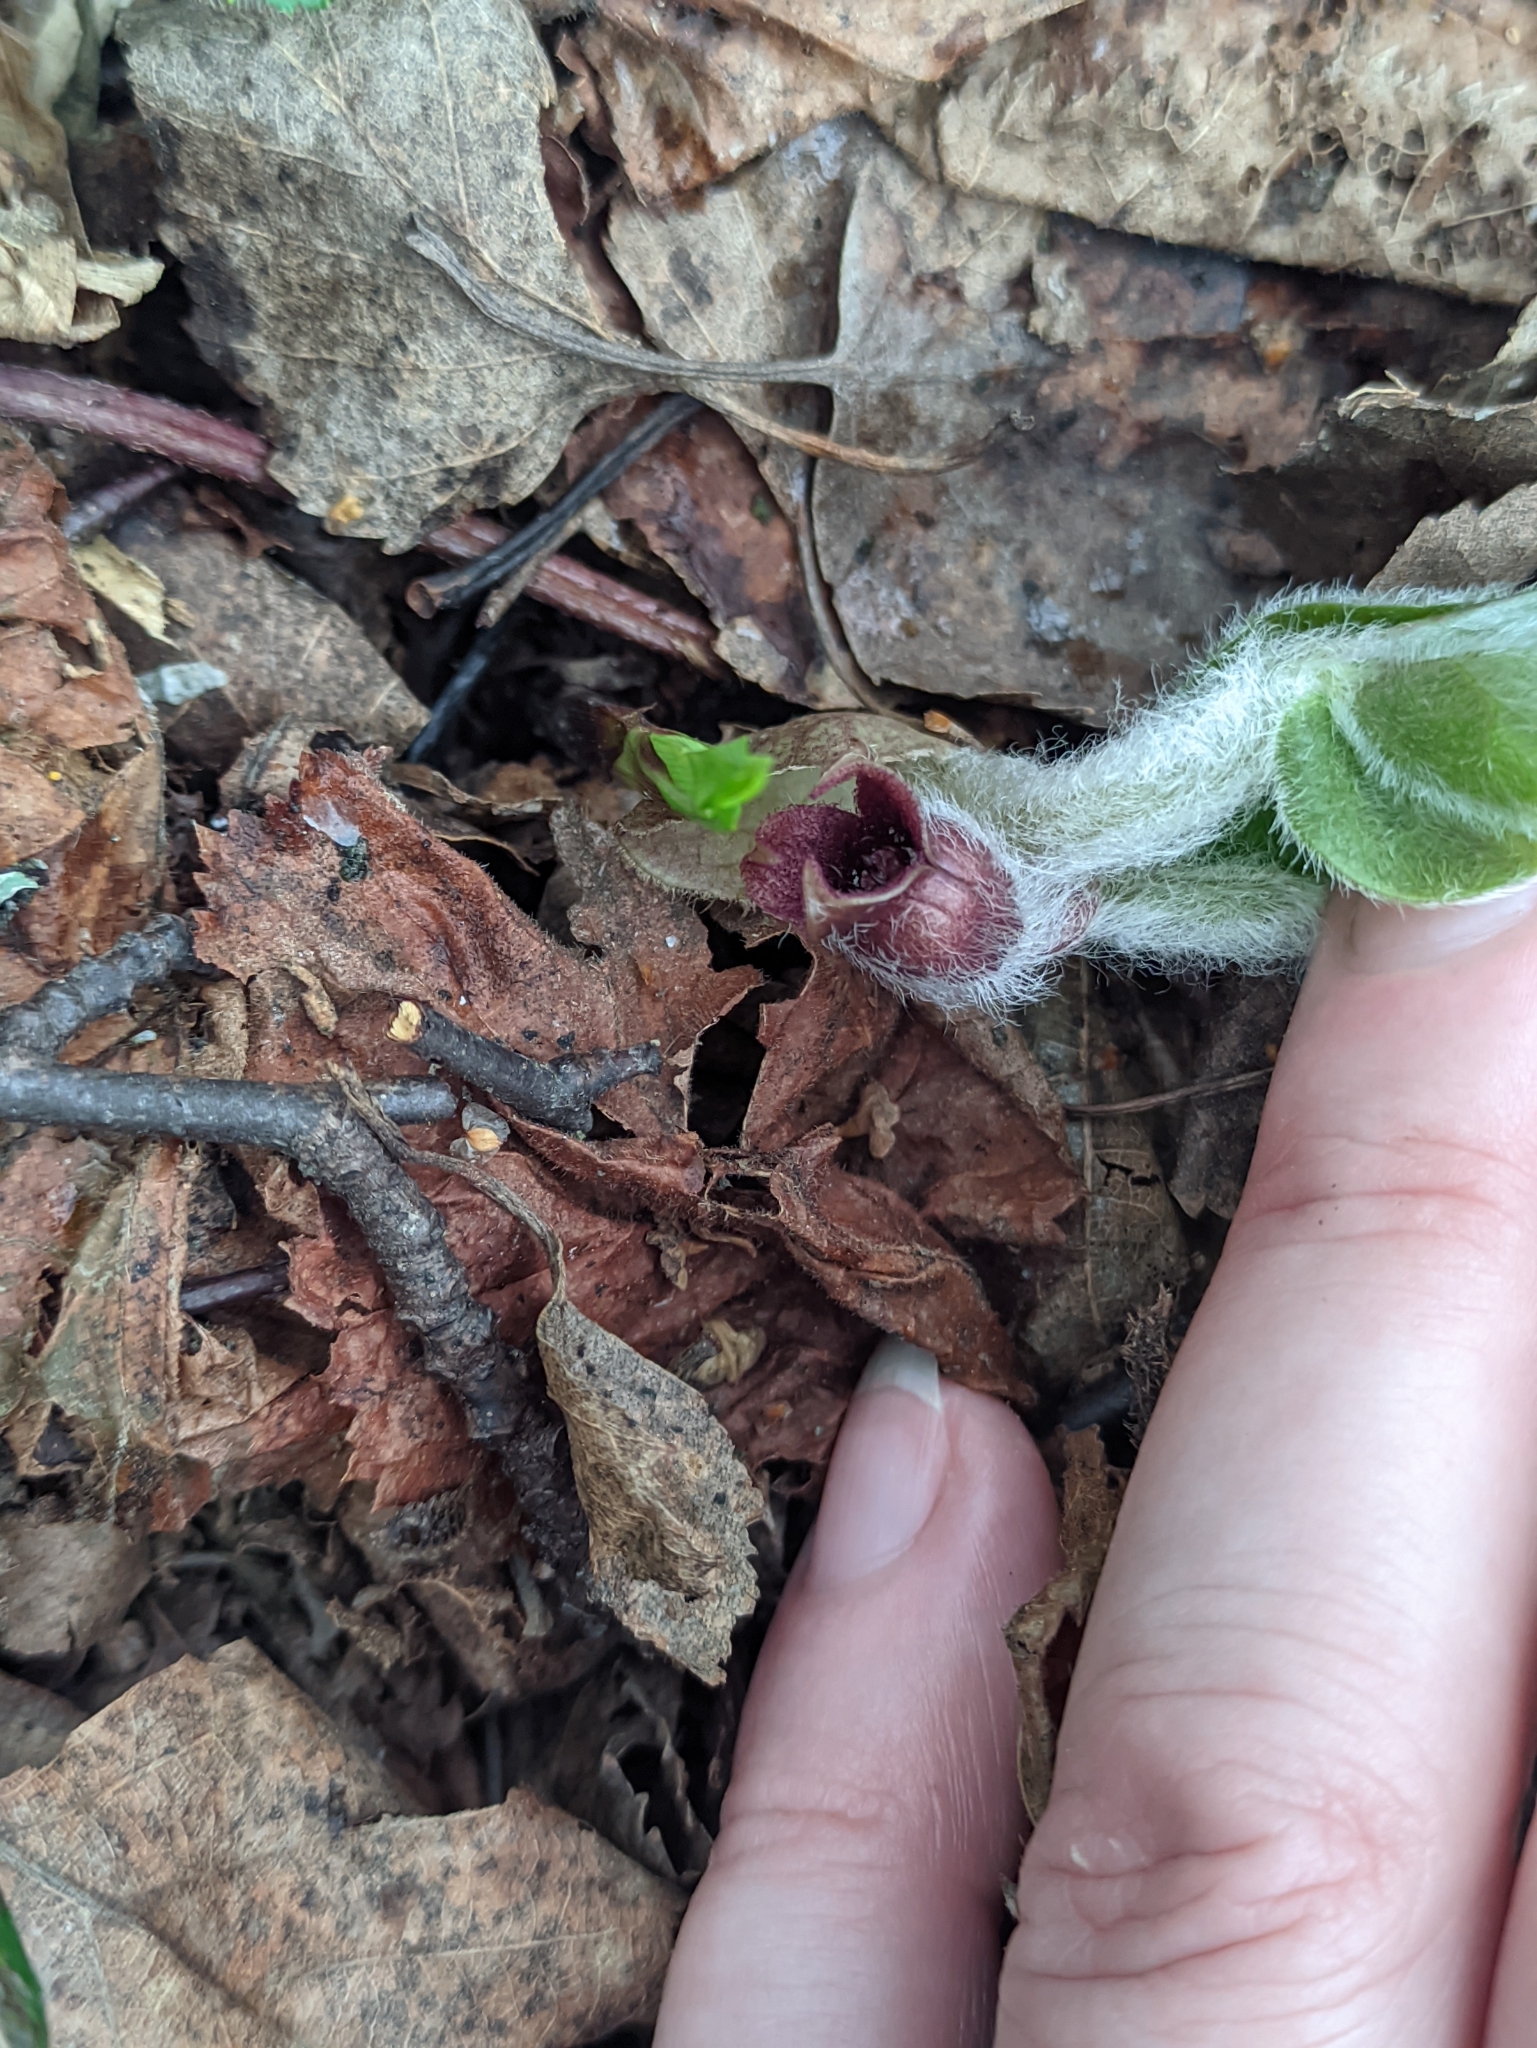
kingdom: Plantae
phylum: Tracheophyta
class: Magnoliopsida
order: Piperales
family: Aristolochiaceae
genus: Asarum
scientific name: Asarum europaeum
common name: Asarabacca
